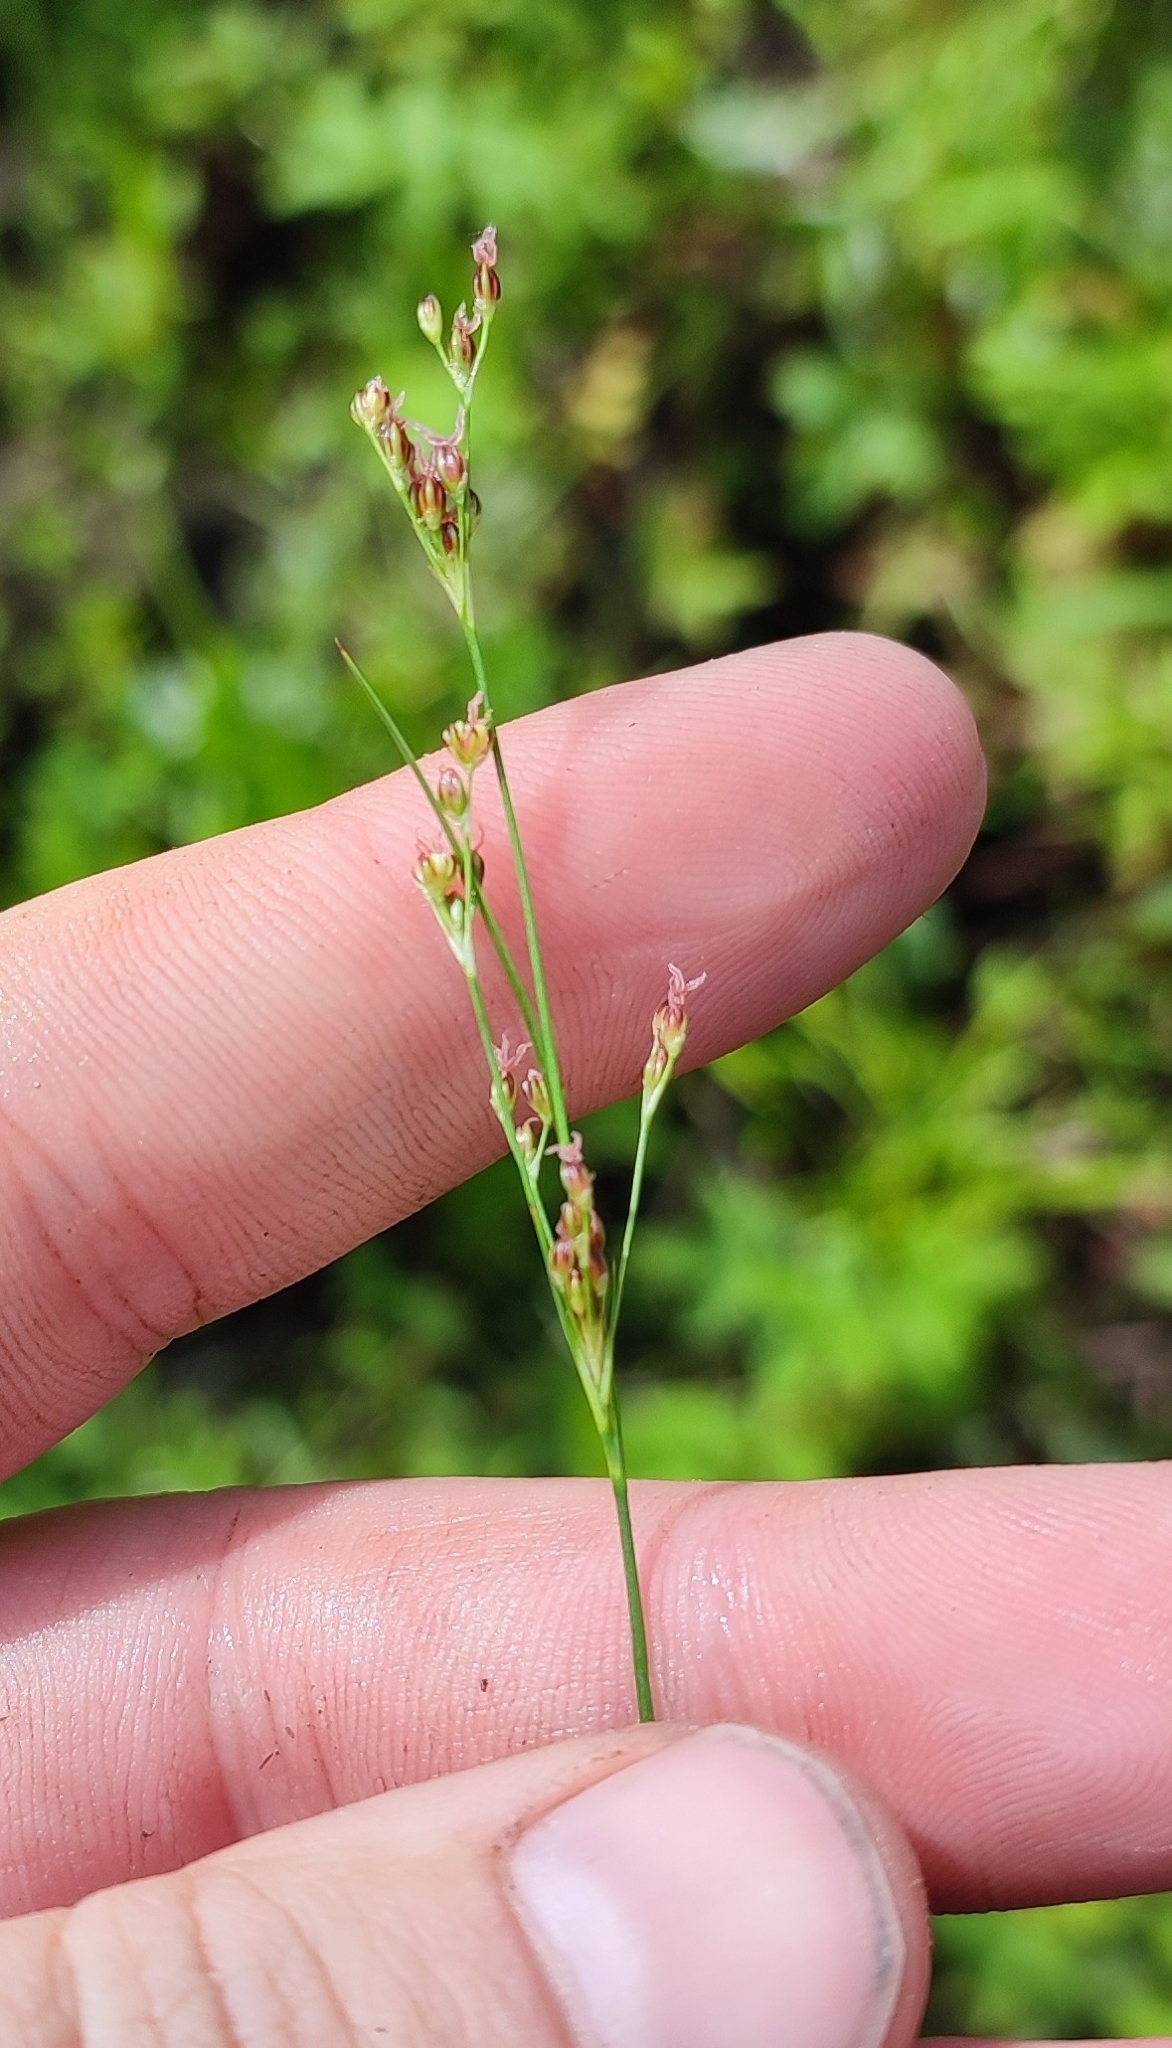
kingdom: Plantae
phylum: Tracheophyta
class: Liliopsida
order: Poales
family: Juncaceae
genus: Juncus
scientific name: Juncus compressus
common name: Round-fruited rush
